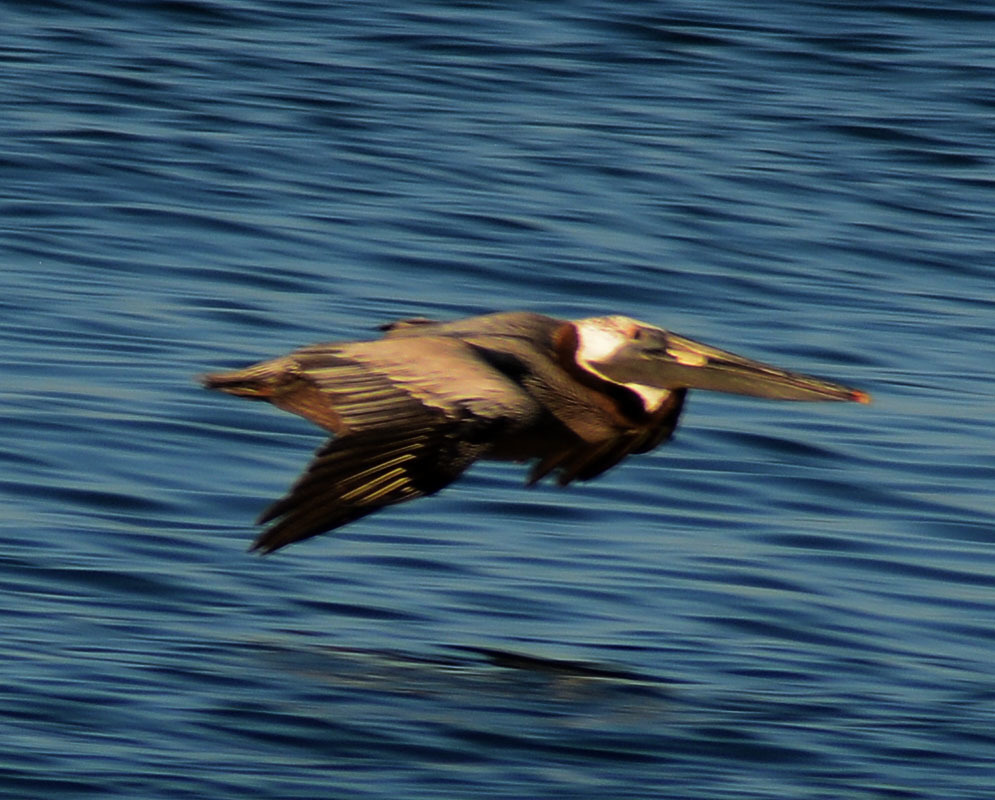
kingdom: Animalia
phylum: Chordata
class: Aves
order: Pelecaniformes
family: Pelecanidae
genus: Pelecanus
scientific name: Pelecanus occidentalis
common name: Brown pelican
